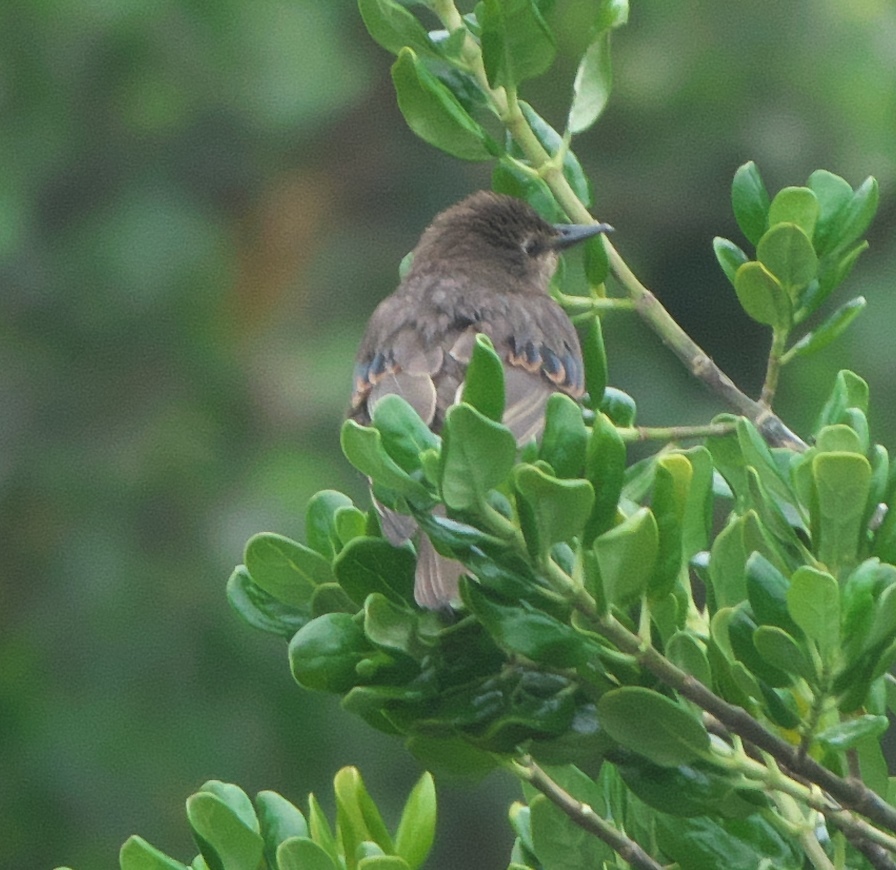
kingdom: Animalia
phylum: Chordata
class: Aves
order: Passeriformes
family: Sturnidae
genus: Sturnus
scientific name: Sturnus vulgaris
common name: Common starling
